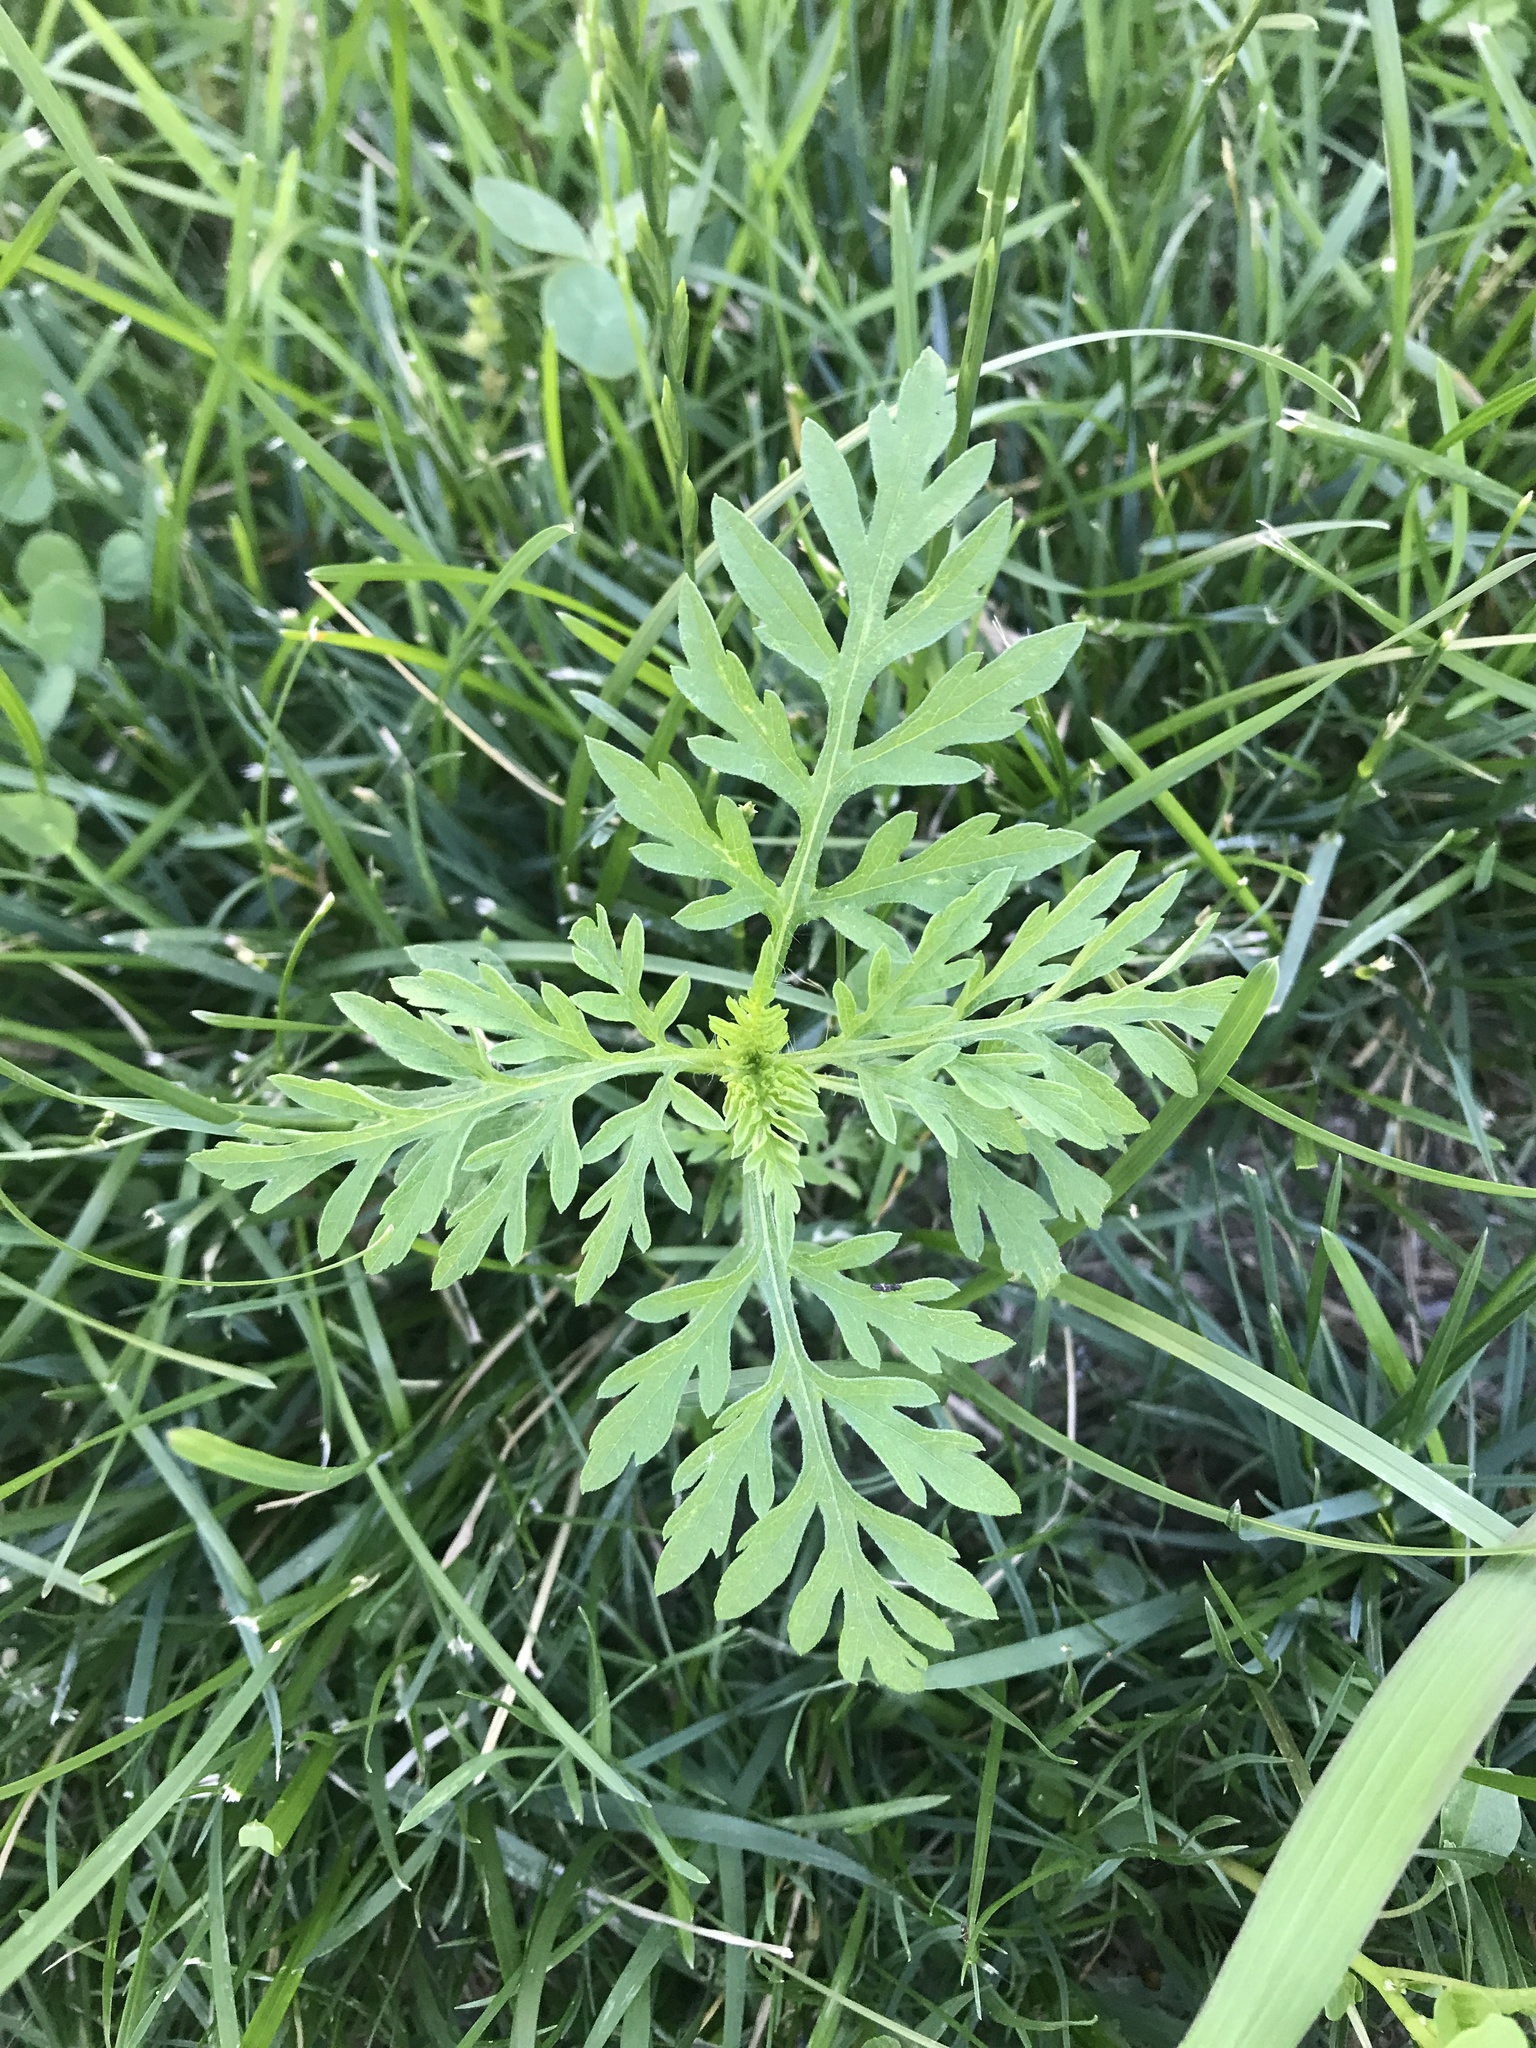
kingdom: Plantae
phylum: Tracheophyta
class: Magnoliopsida
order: Asterales
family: Asteraceae
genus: Ambrosia
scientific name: Ambrosia artemisiifolia
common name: Annual ragweed
